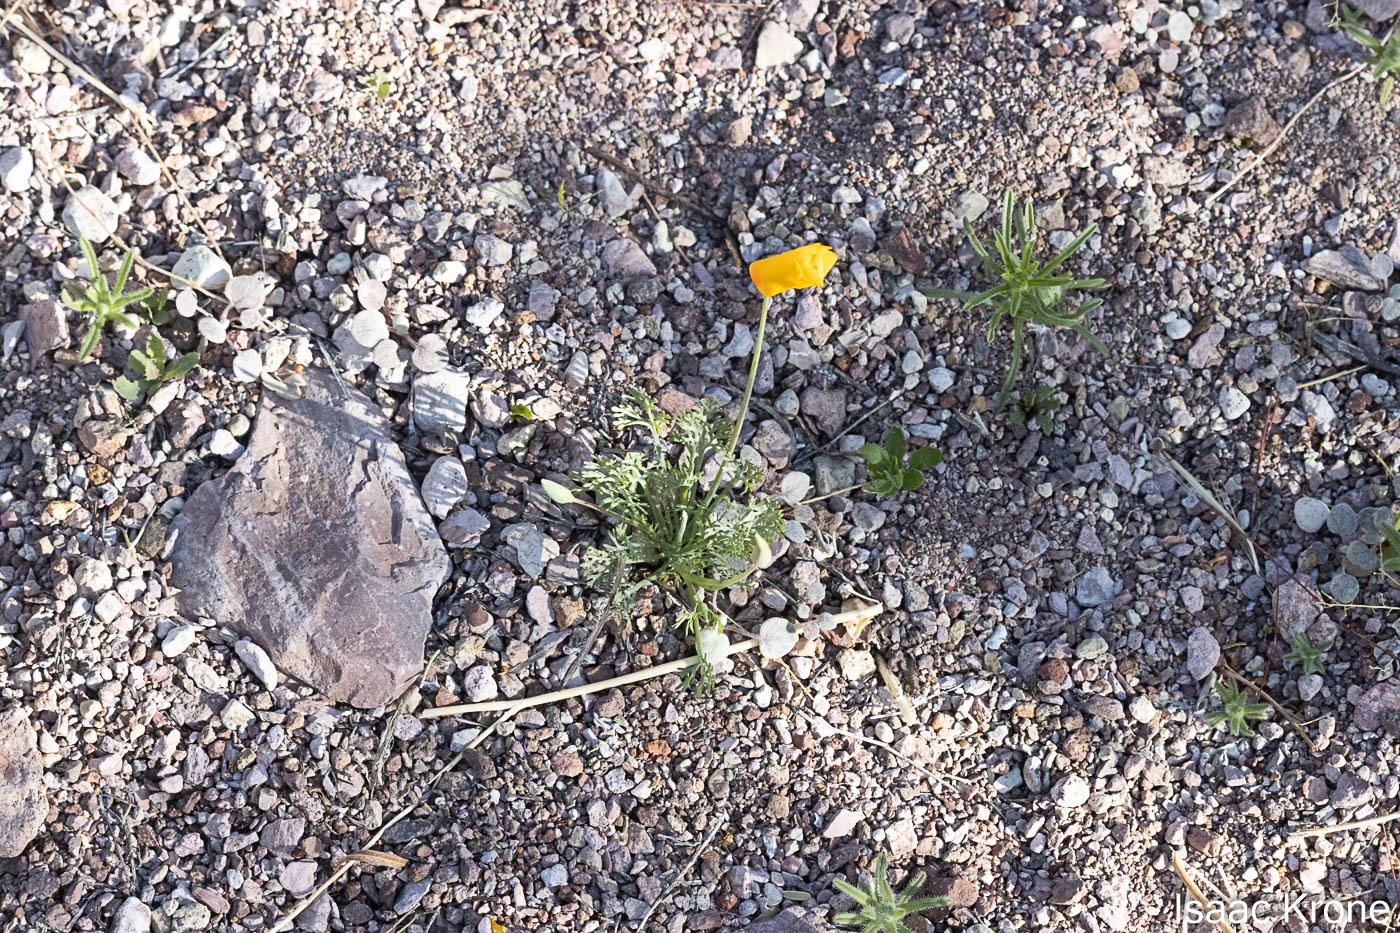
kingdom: Plantae
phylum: Tracheophyta
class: Magnoliopsida
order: Ranunculales
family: Papaveraceae
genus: Eschscholzia
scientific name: Eschscholzia californica
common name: California poppy
